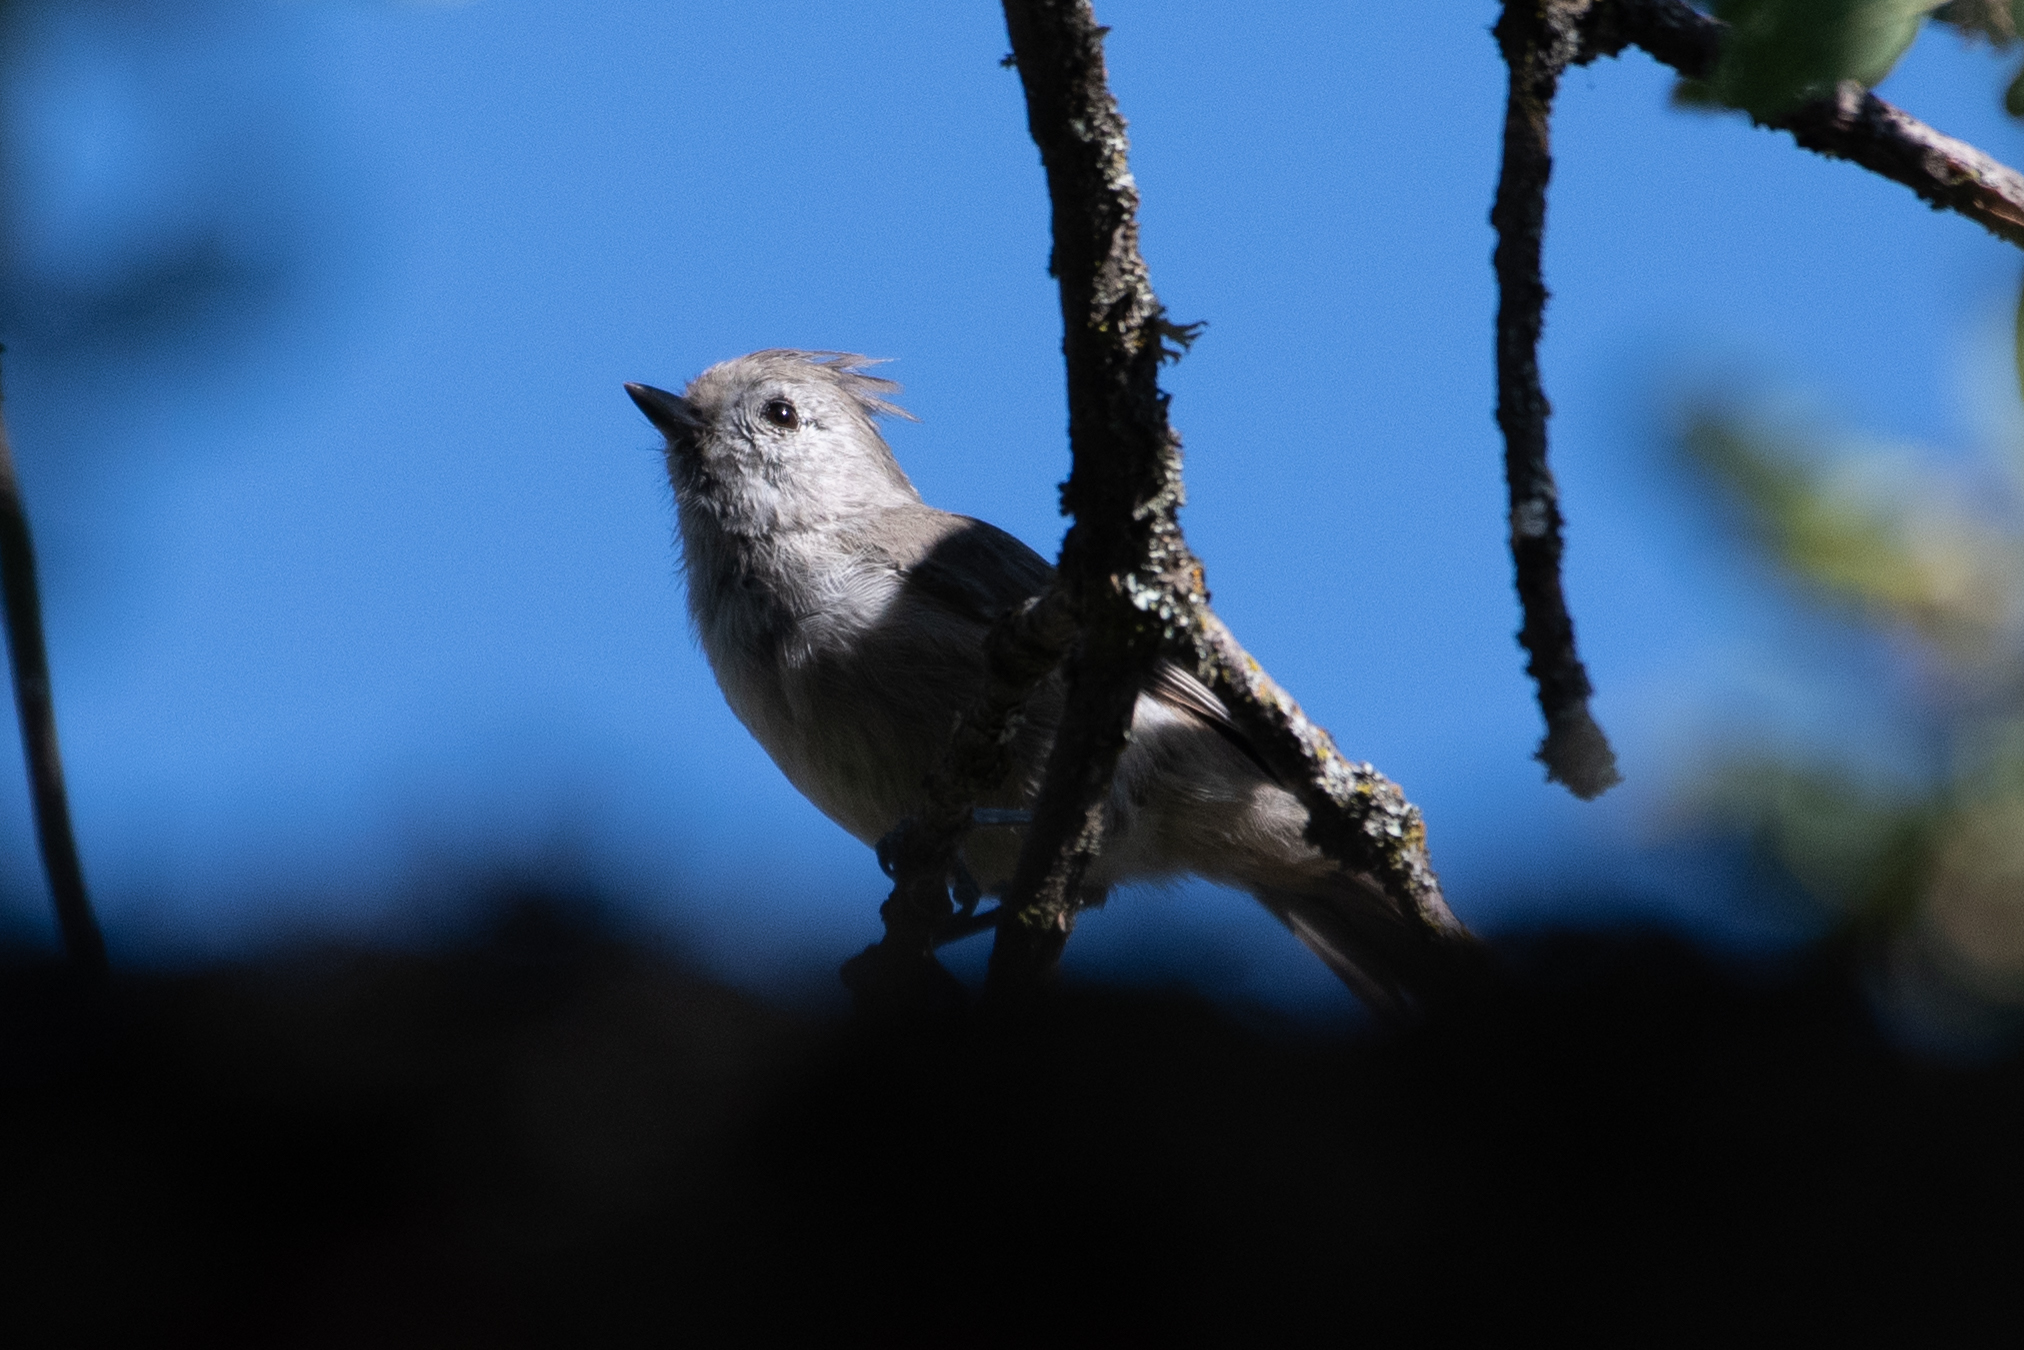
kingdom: Animalia
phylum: Chordata
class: Aves
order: Passeriformes
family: Paridae
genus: Baeolophus
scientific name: Baeolophus inornatus
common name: Oak titmouse
